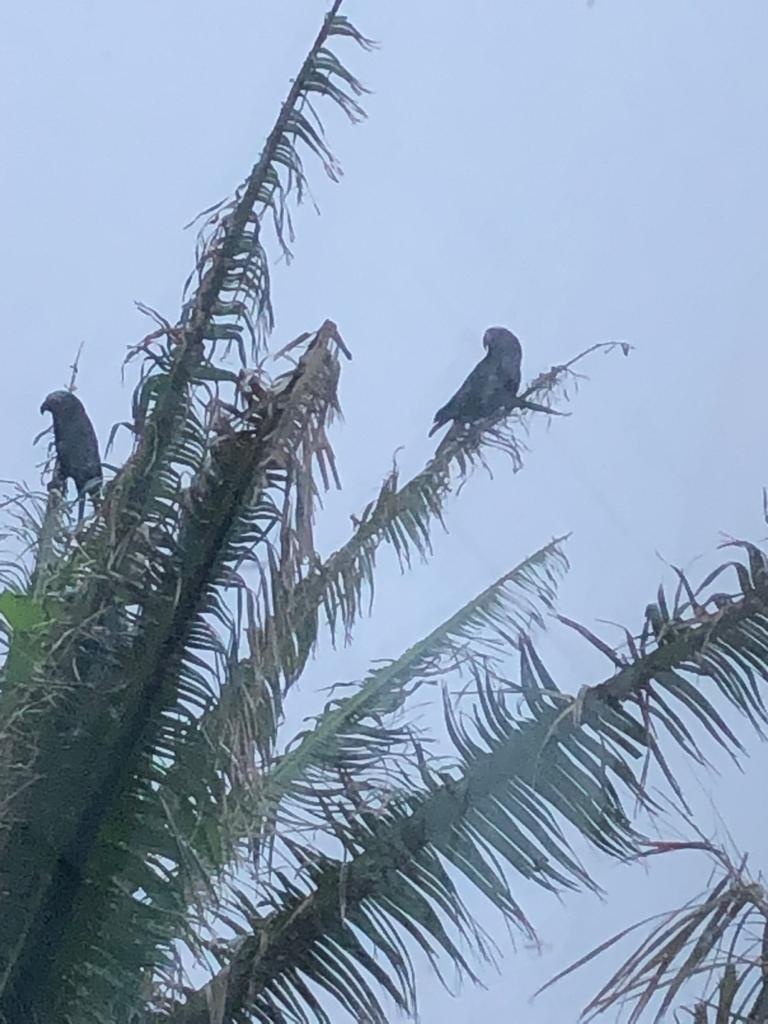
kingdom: Animalia
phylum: Chordata
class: Aves
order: Psittaciformes
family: Psittacidae
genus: Nestor
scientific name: Nestor meridionalis
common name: New zealand kaka
